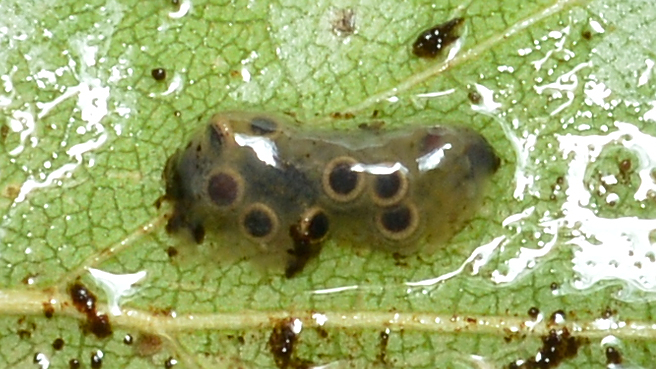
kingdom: Animalia
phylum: Bryozoa
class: Phylactolaemata
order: Plumatellida
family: Cristatellidae
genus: Cristatella
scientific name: Cristatella mucedo
